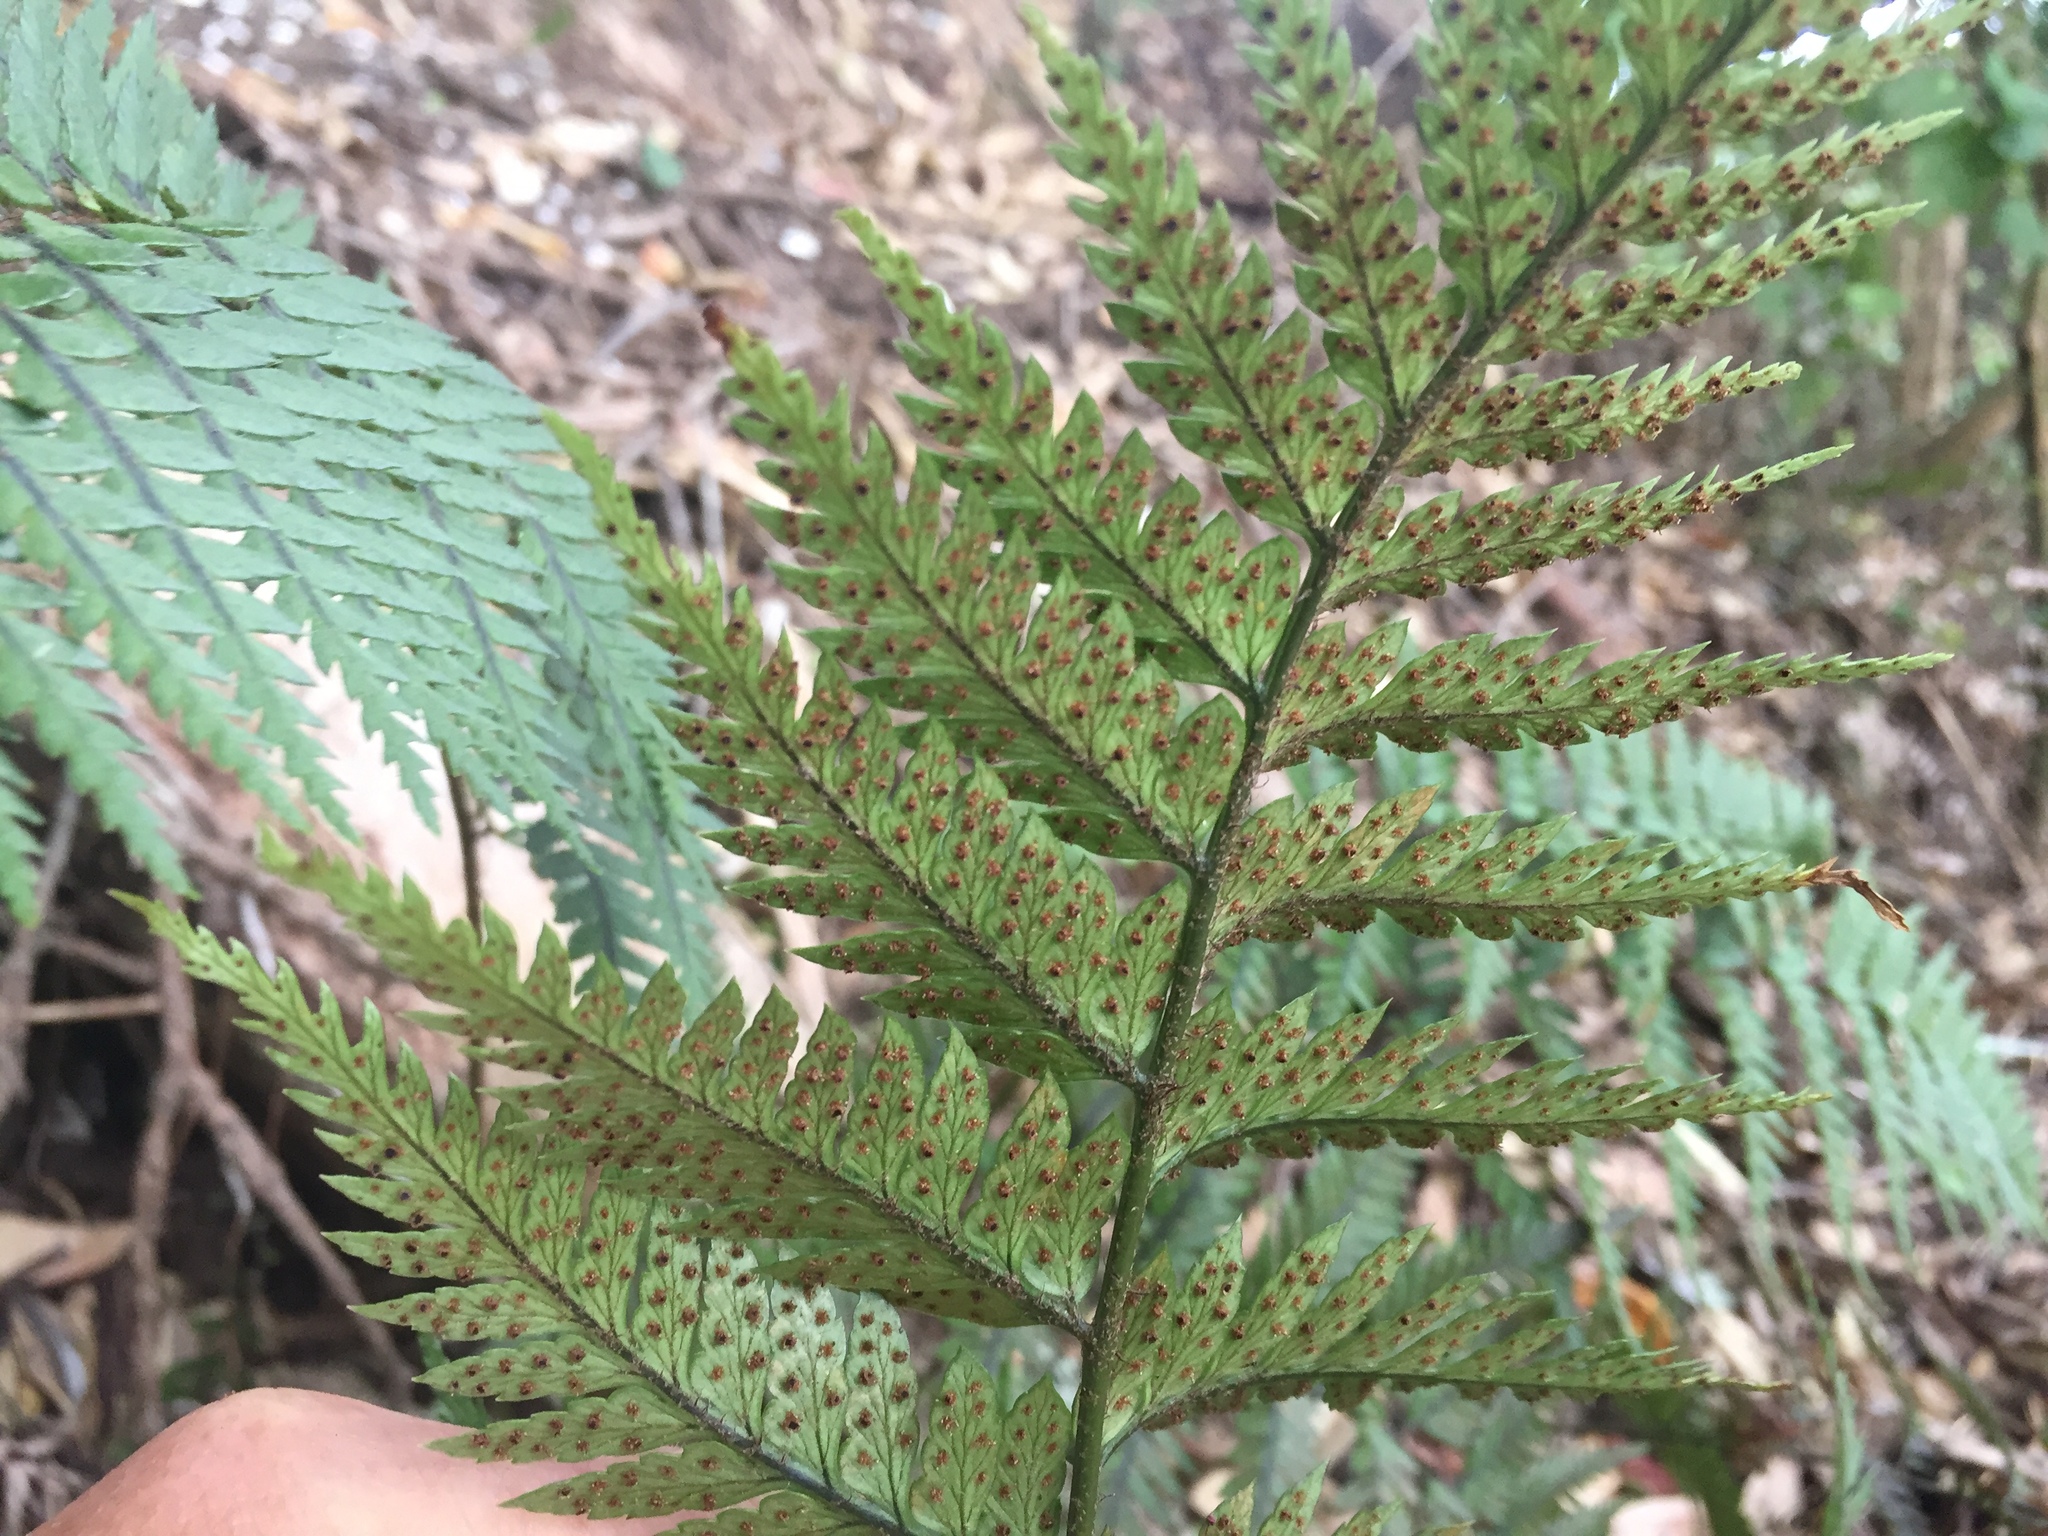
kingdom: Plantae
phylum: Tracheophyta
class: Polypodiopsida
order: Polypodiales
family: Dryopteridaceae
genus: Polystichum
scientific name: Polystichum neozelandicum
